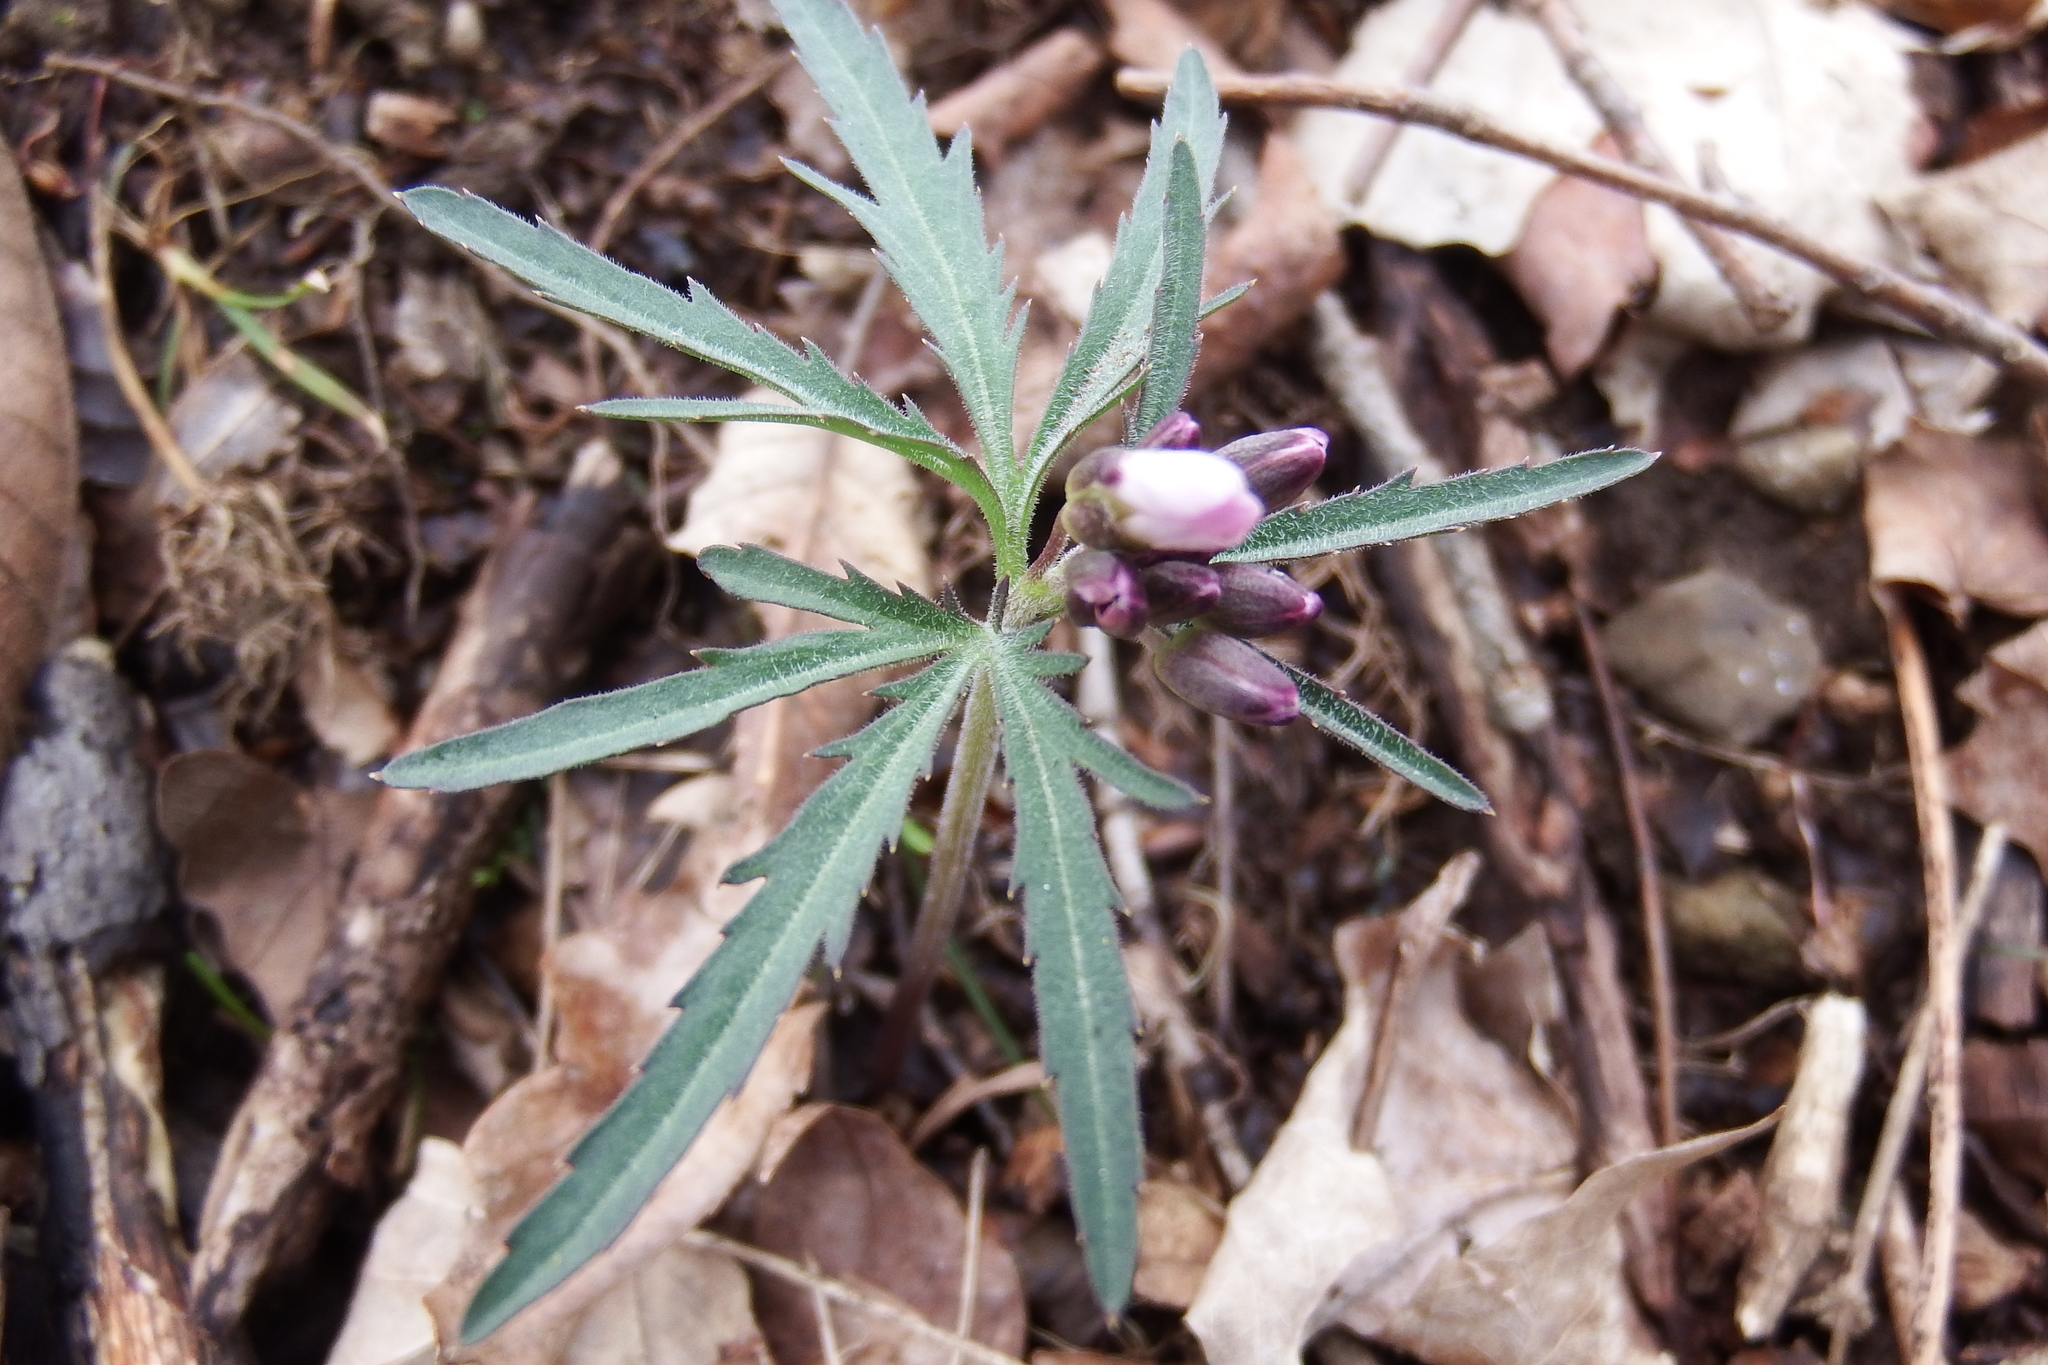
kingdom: Plantae
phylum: Tracheophyta
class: Magnoliopsida
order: Brassicales
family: Brassicaceae
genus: Cardamine
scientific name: Cardamine concatenata
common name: Cut-leaf toothcup
